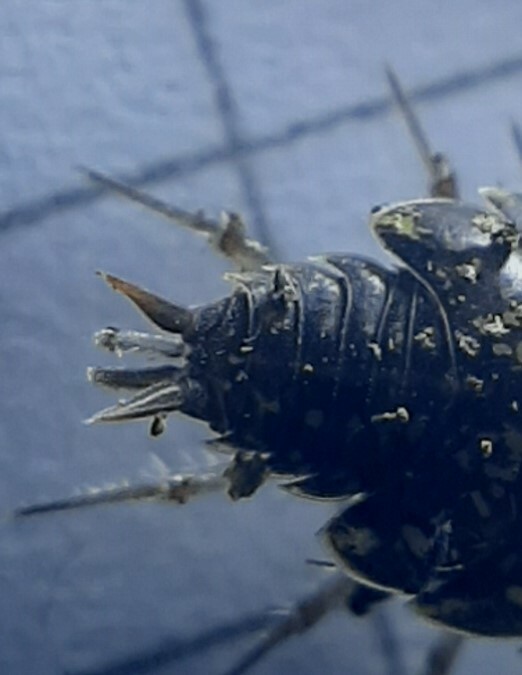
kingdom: Animalia
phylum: Arthropoda
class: Malacostraca
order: Isopoda
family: Philosciidae
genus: Philoscia
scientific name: Philoscia affinis
